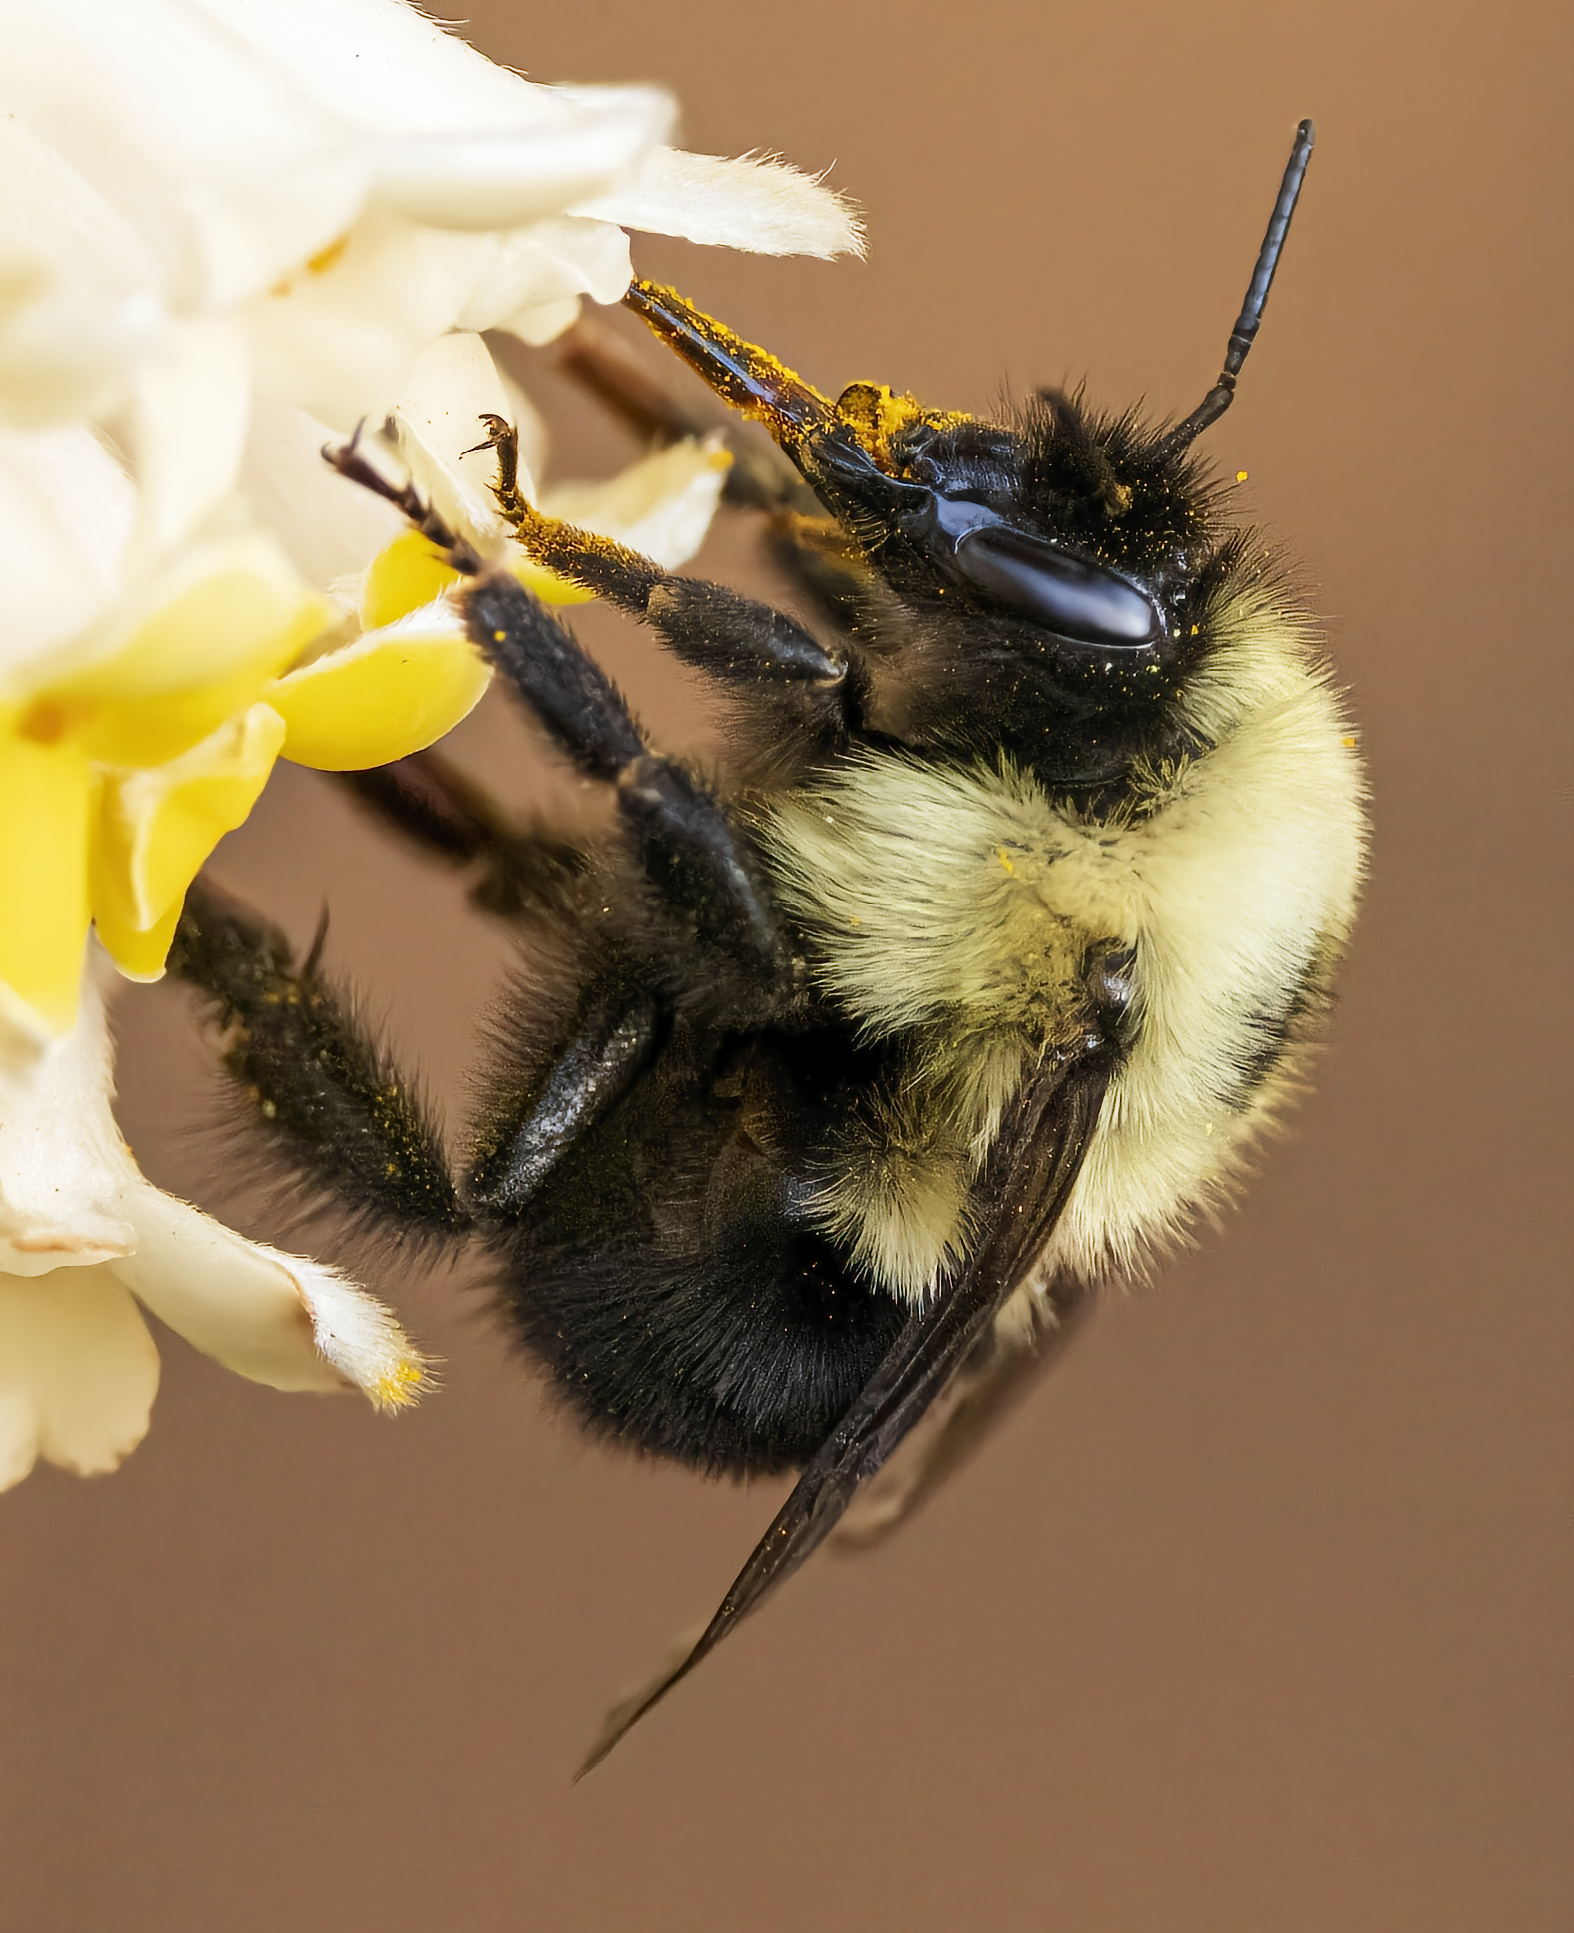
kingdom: Animalia
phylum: Arthropoda
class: Insecta
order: Hymenoptera
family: Apidae
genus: Bombus
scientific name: Bombus bimaculatus
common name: Two-spotted bumble bee
